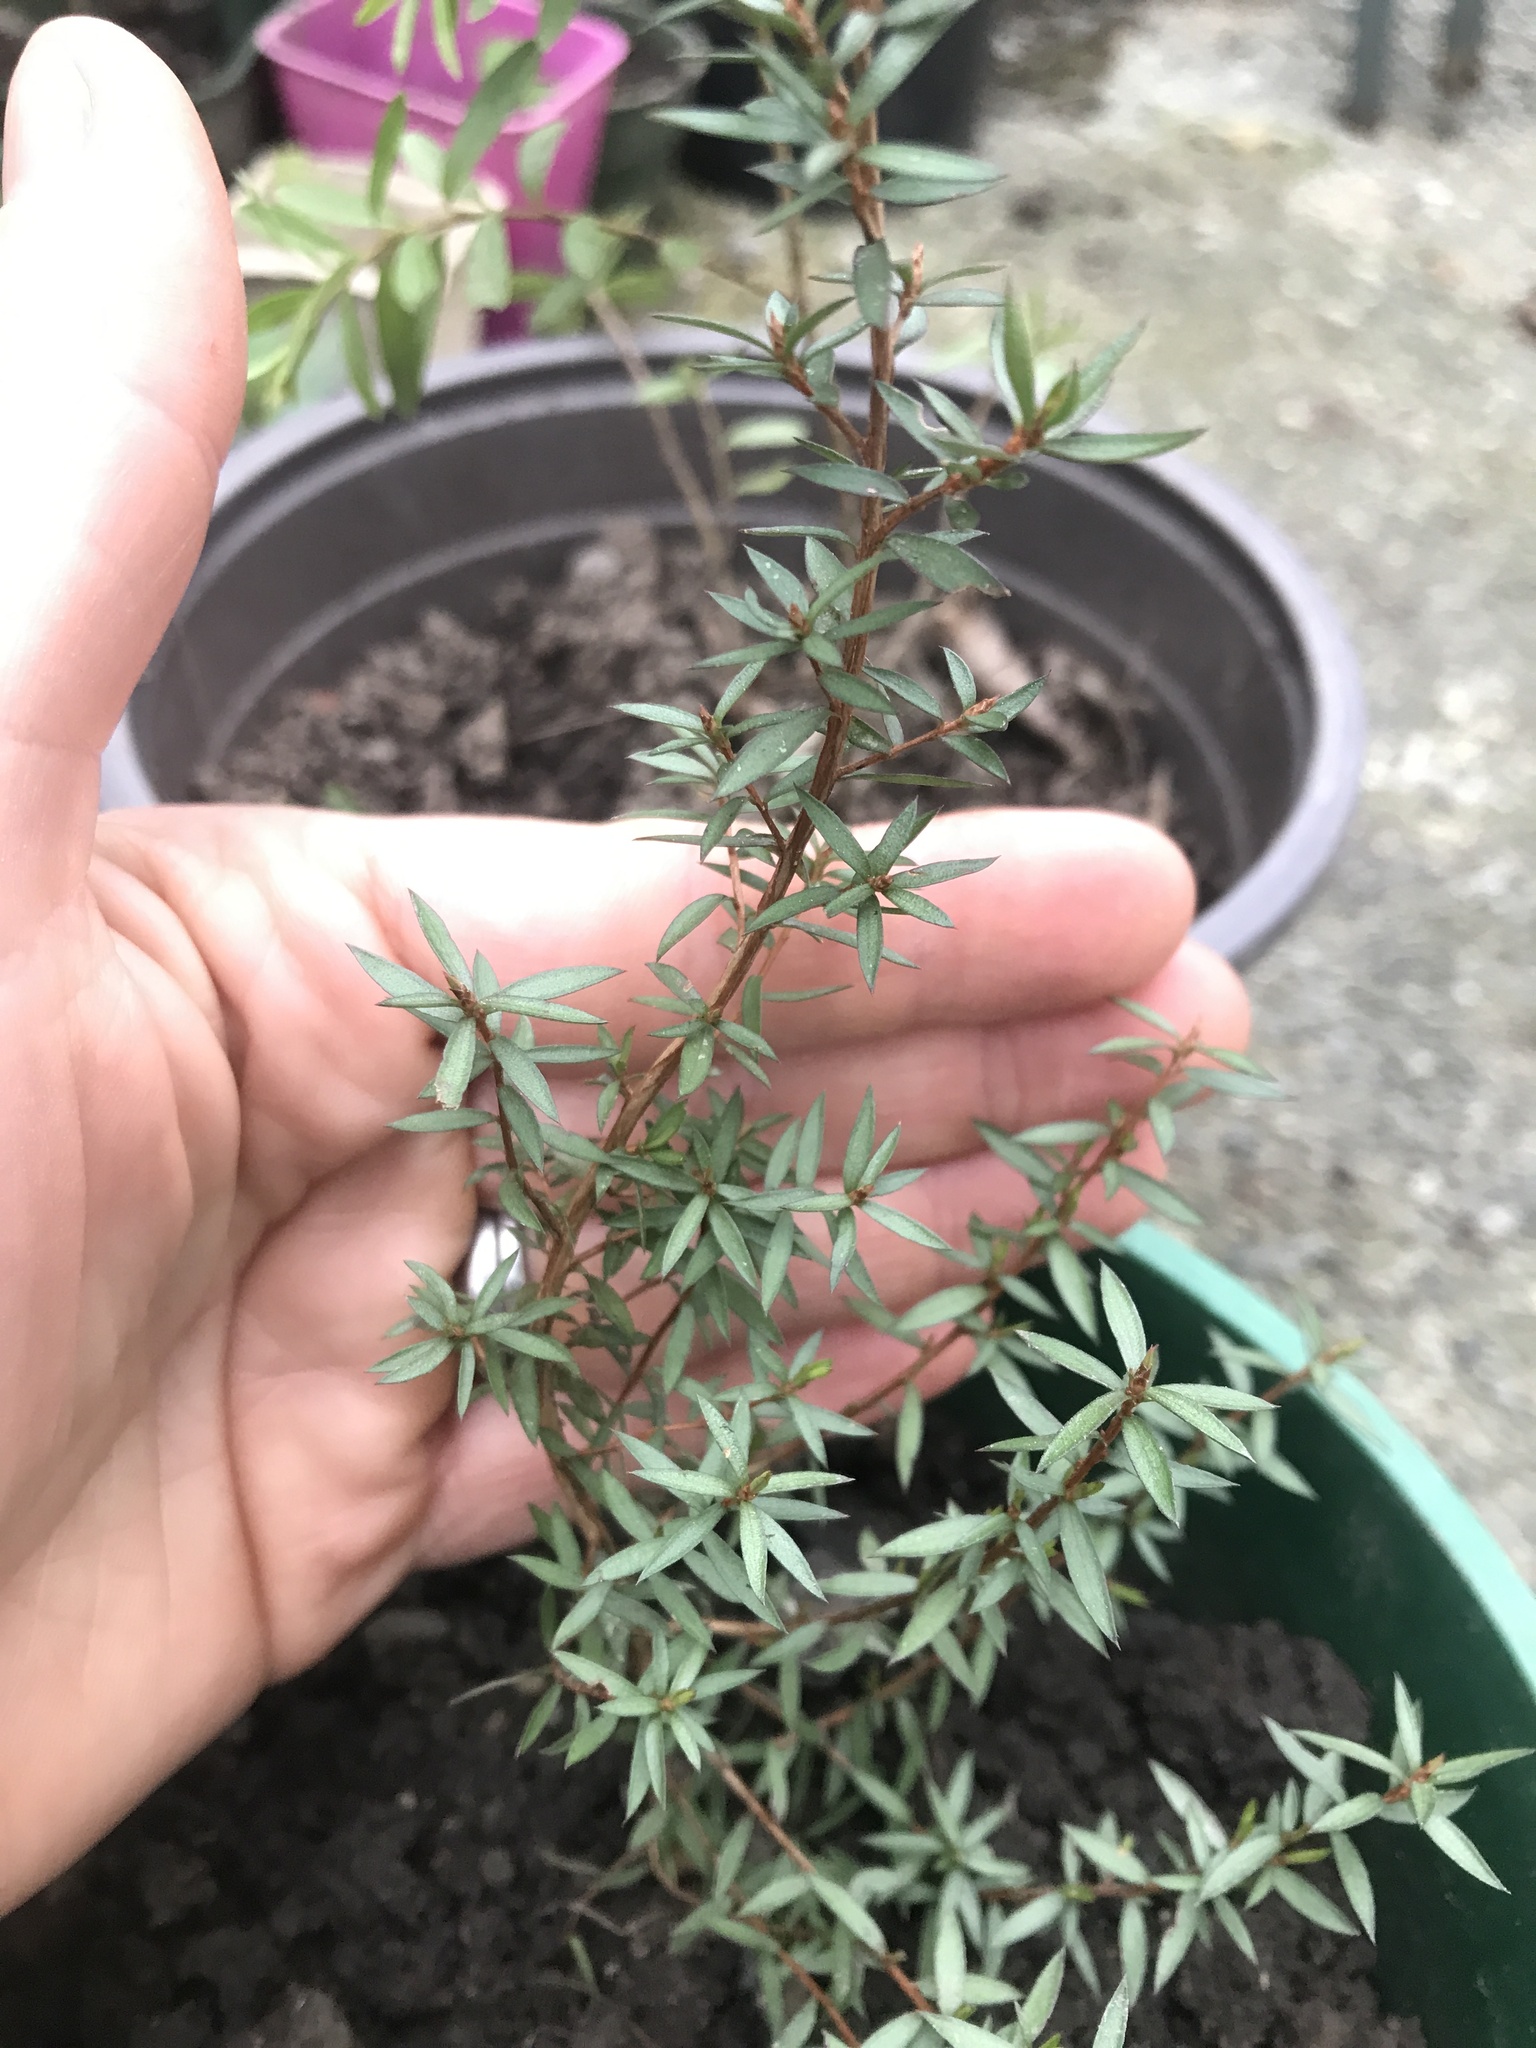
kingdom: Plantae
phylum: Tracheophyta
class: Magnoliopsida
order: Myrtales
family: Myrtaceae
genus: Leptospermum
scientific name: Leptospermum scoparium
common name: Broom tea-tree
